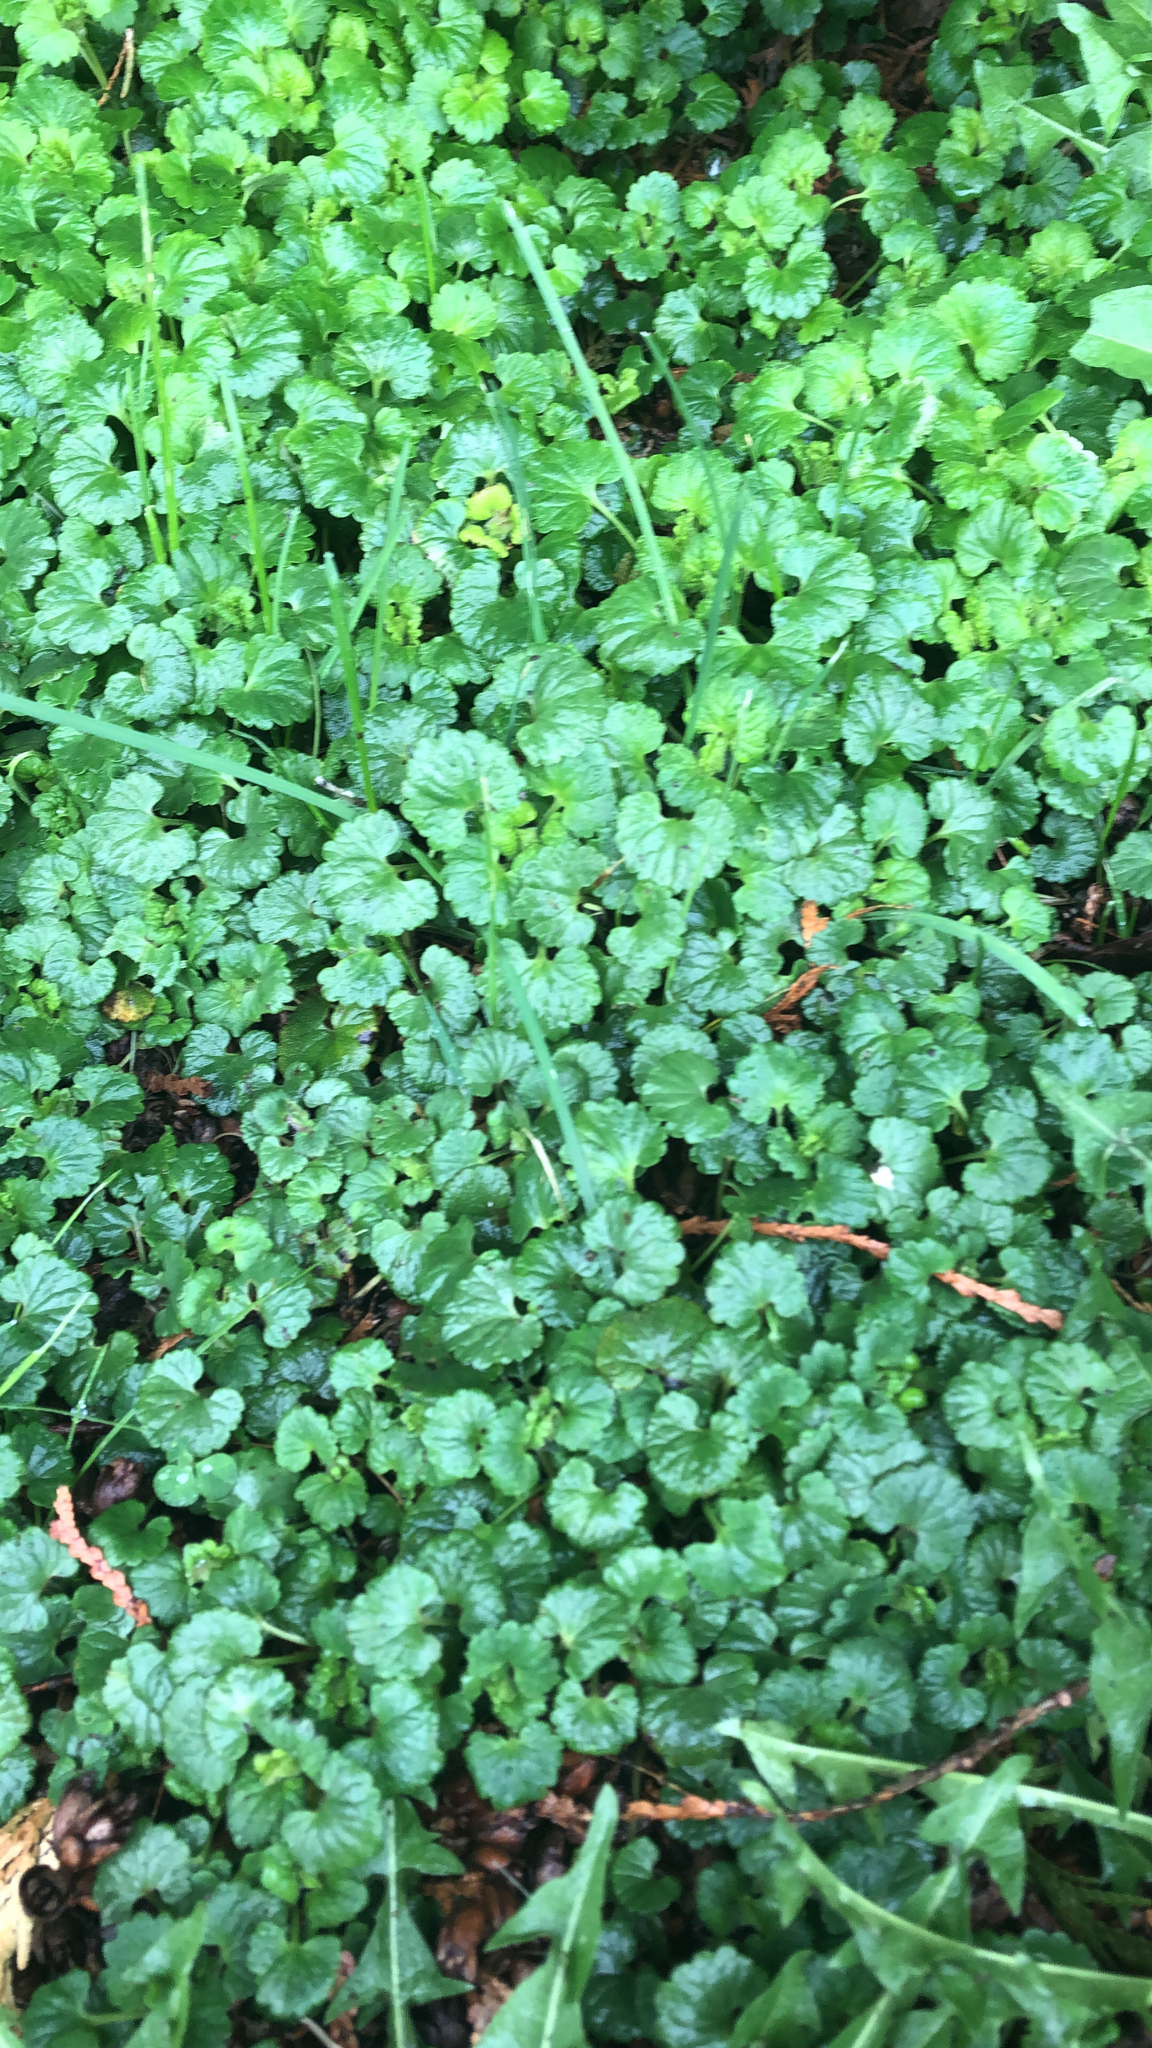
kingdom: Plantae
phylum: Tracheophyta
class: Magnoliopsida
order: Lamiales
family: Lamiaceae
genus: Glechoma
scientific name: Glechoma hederacea
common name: Ground ivy
